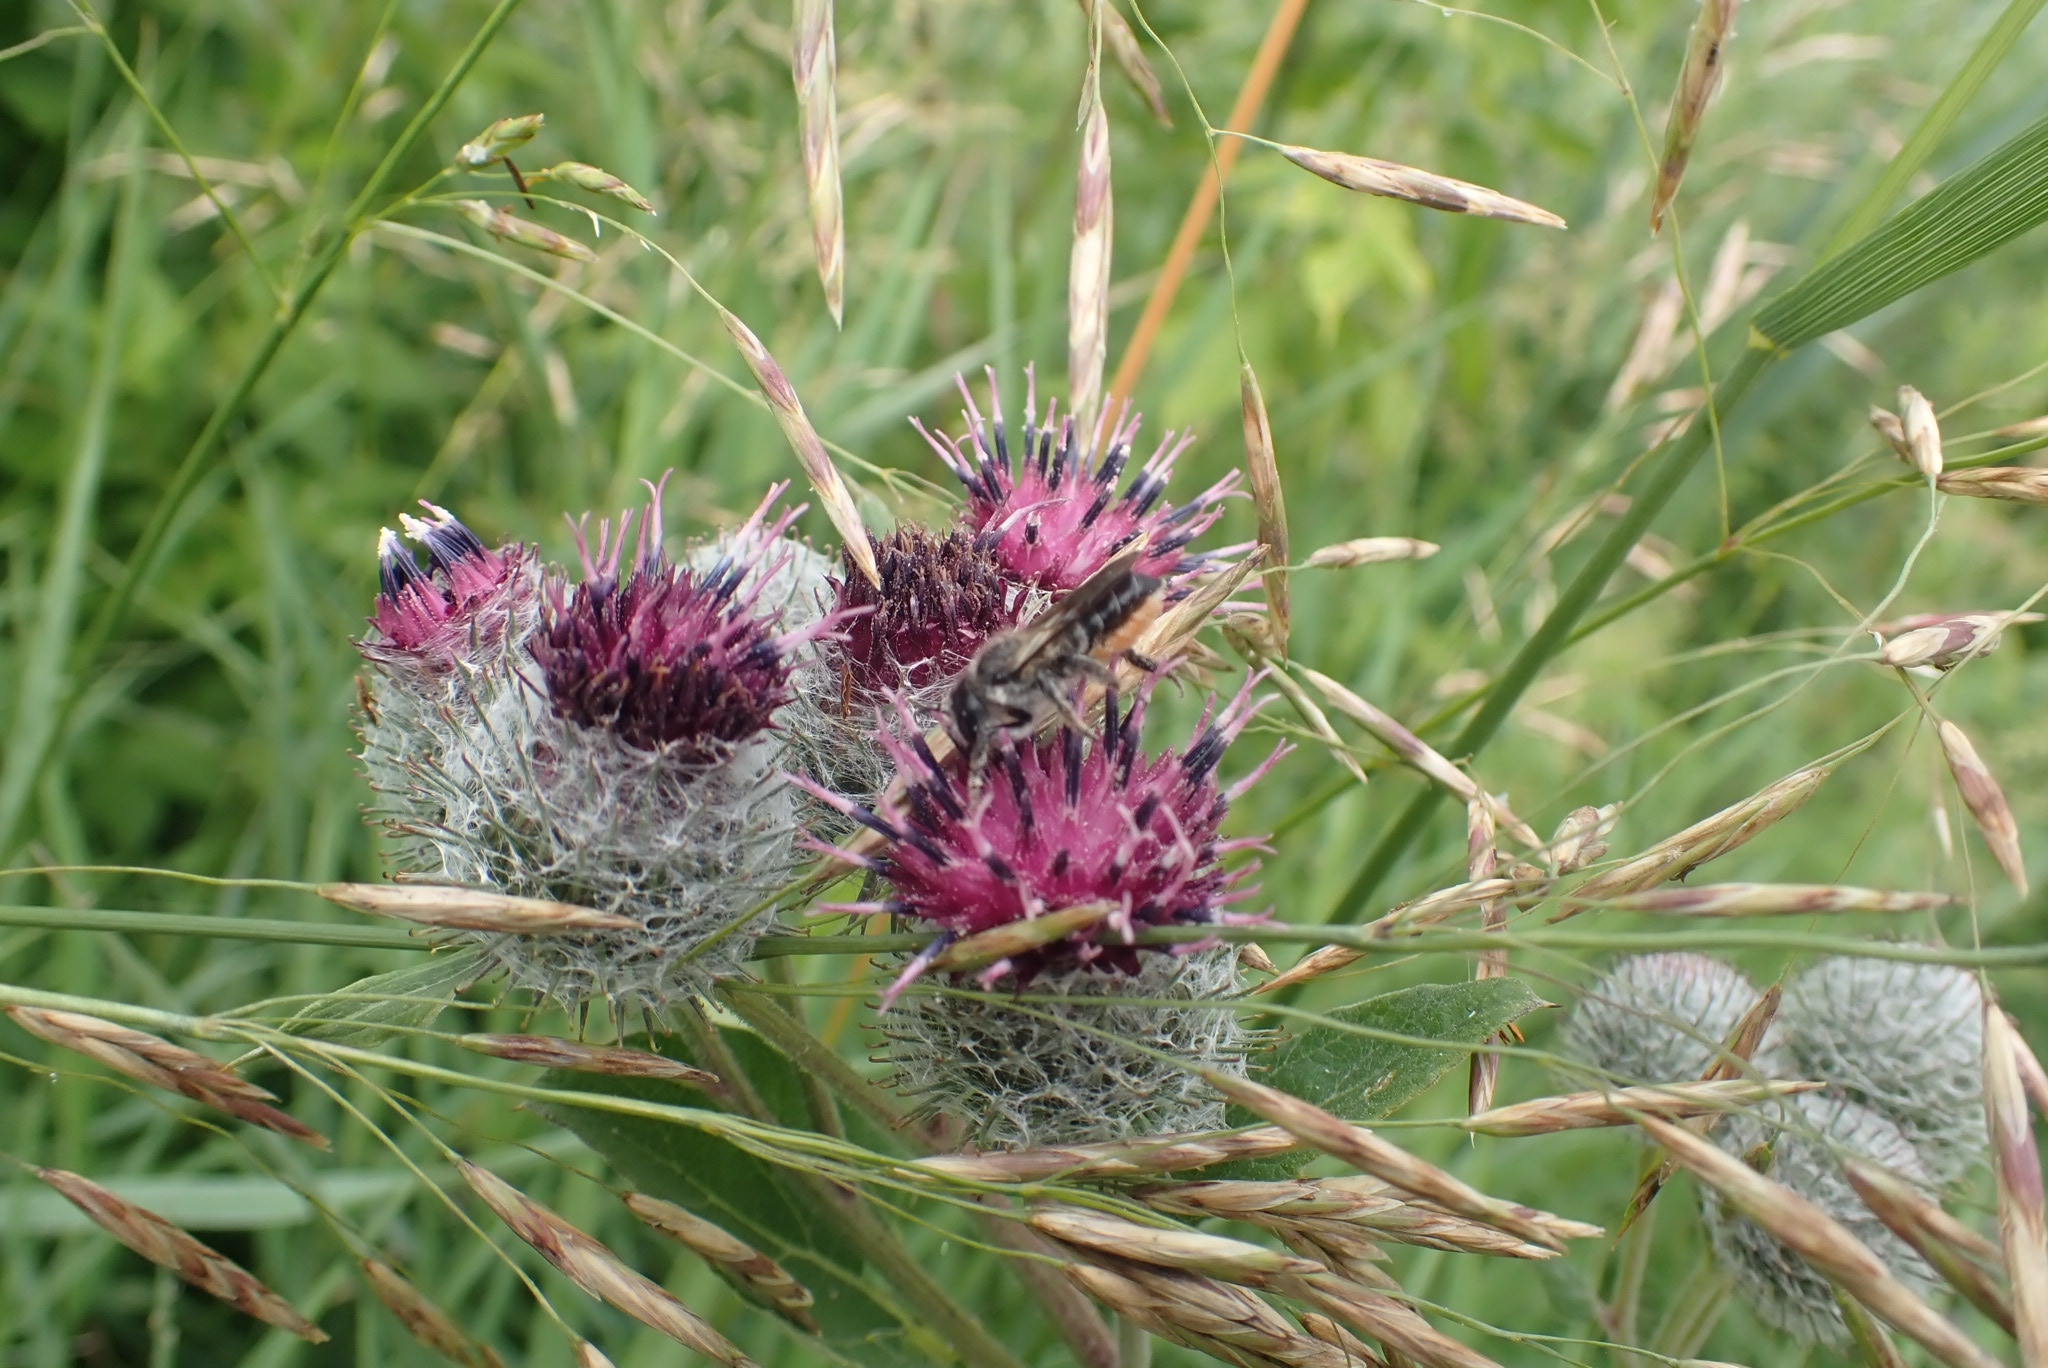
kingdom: Plantae
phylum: Tracheophyta
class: Magnoliopsida
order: Asterales
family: Asteraceae
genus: Arctium
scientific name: Arctium tomentosum
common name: Woolly burdock
